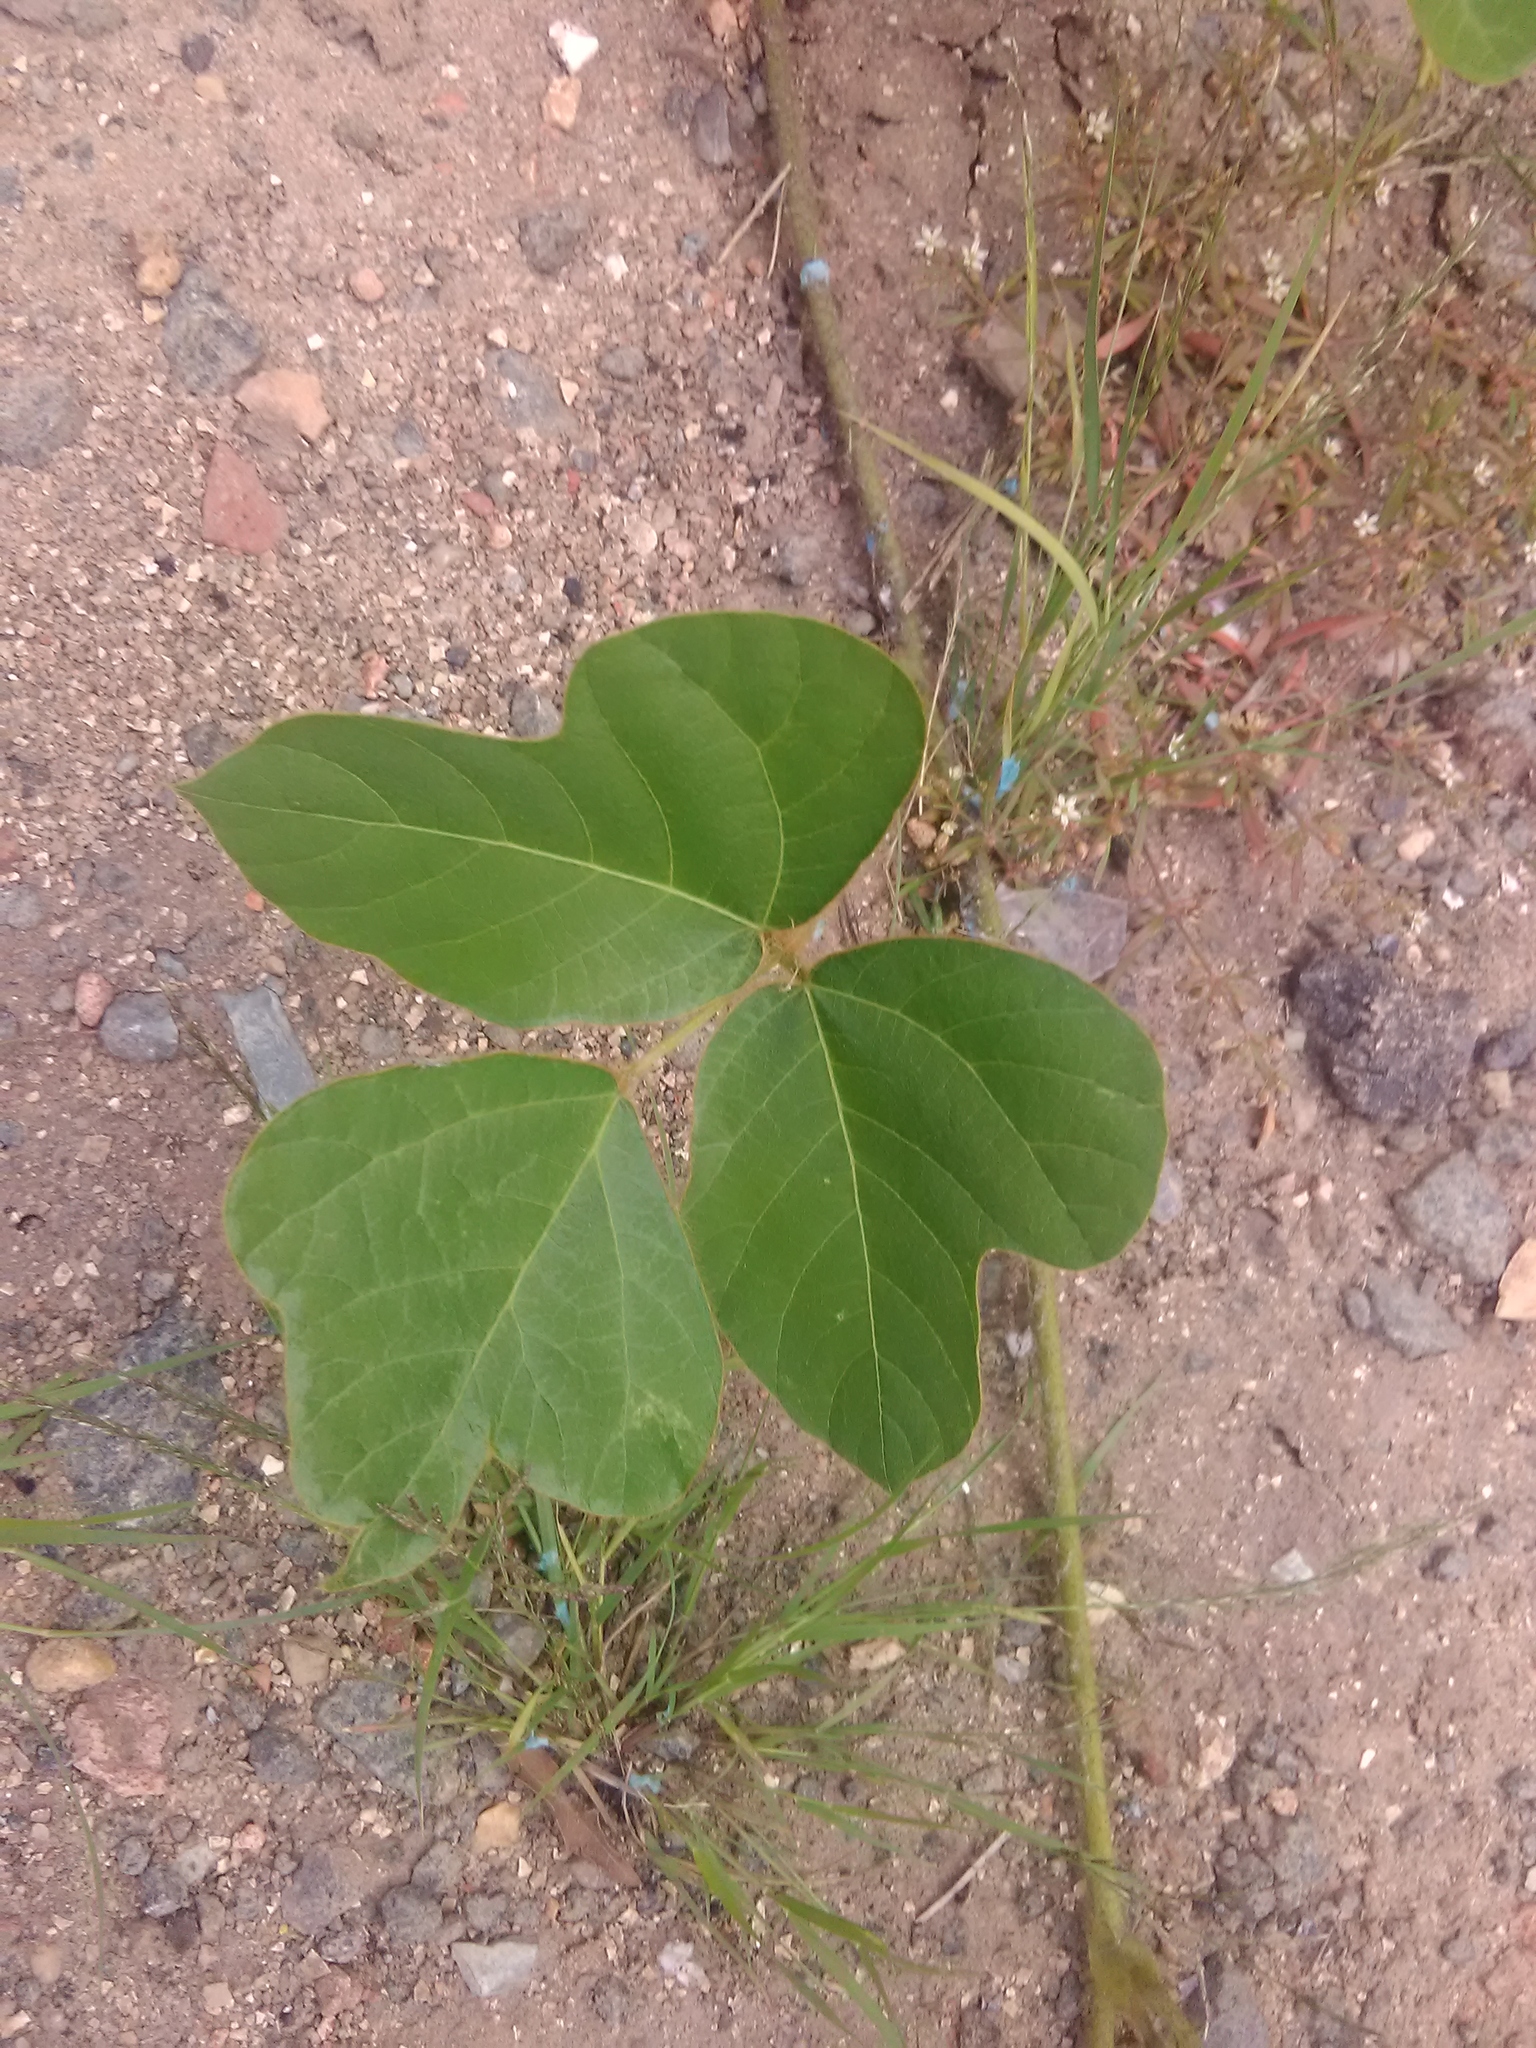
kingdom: Plantae
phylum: Tracheophyta
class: Magnoliopsida
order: Fabales
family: Fabaceae
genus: Pueraria
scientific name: Pueraria montana
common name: Kudzu
